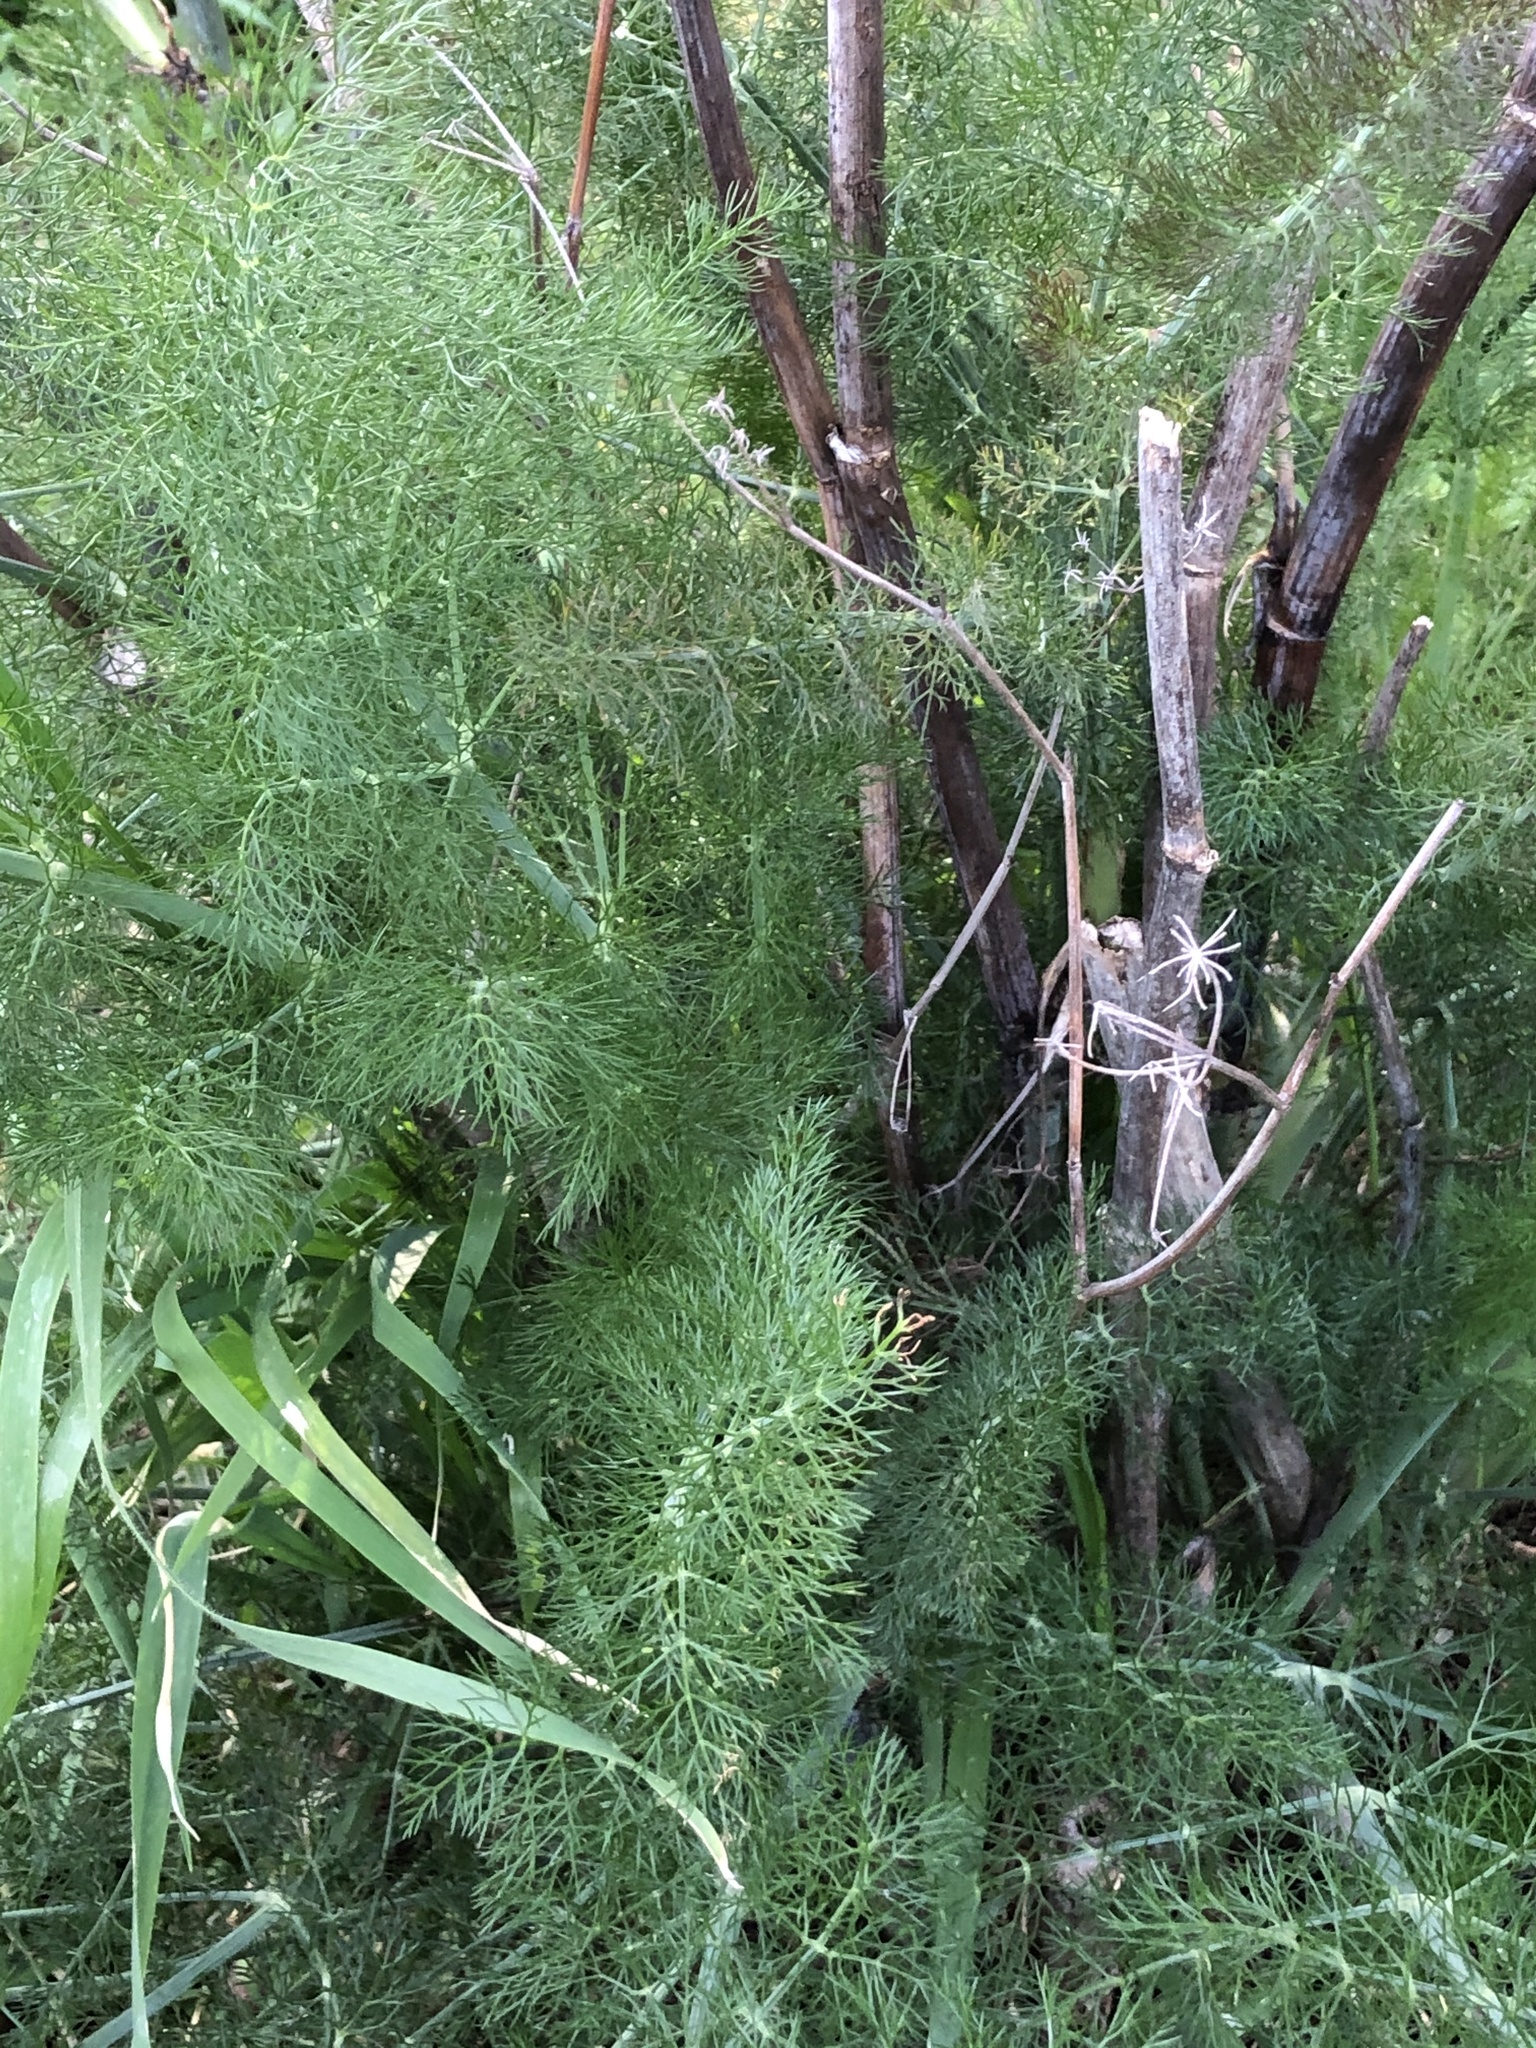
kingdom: Plantae
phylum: Tracheophyta
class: Magnoliopsida
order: Apiales
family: Apiaceae
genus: Foeniculum
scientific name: Foeniculum vulgare
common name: Fennel
